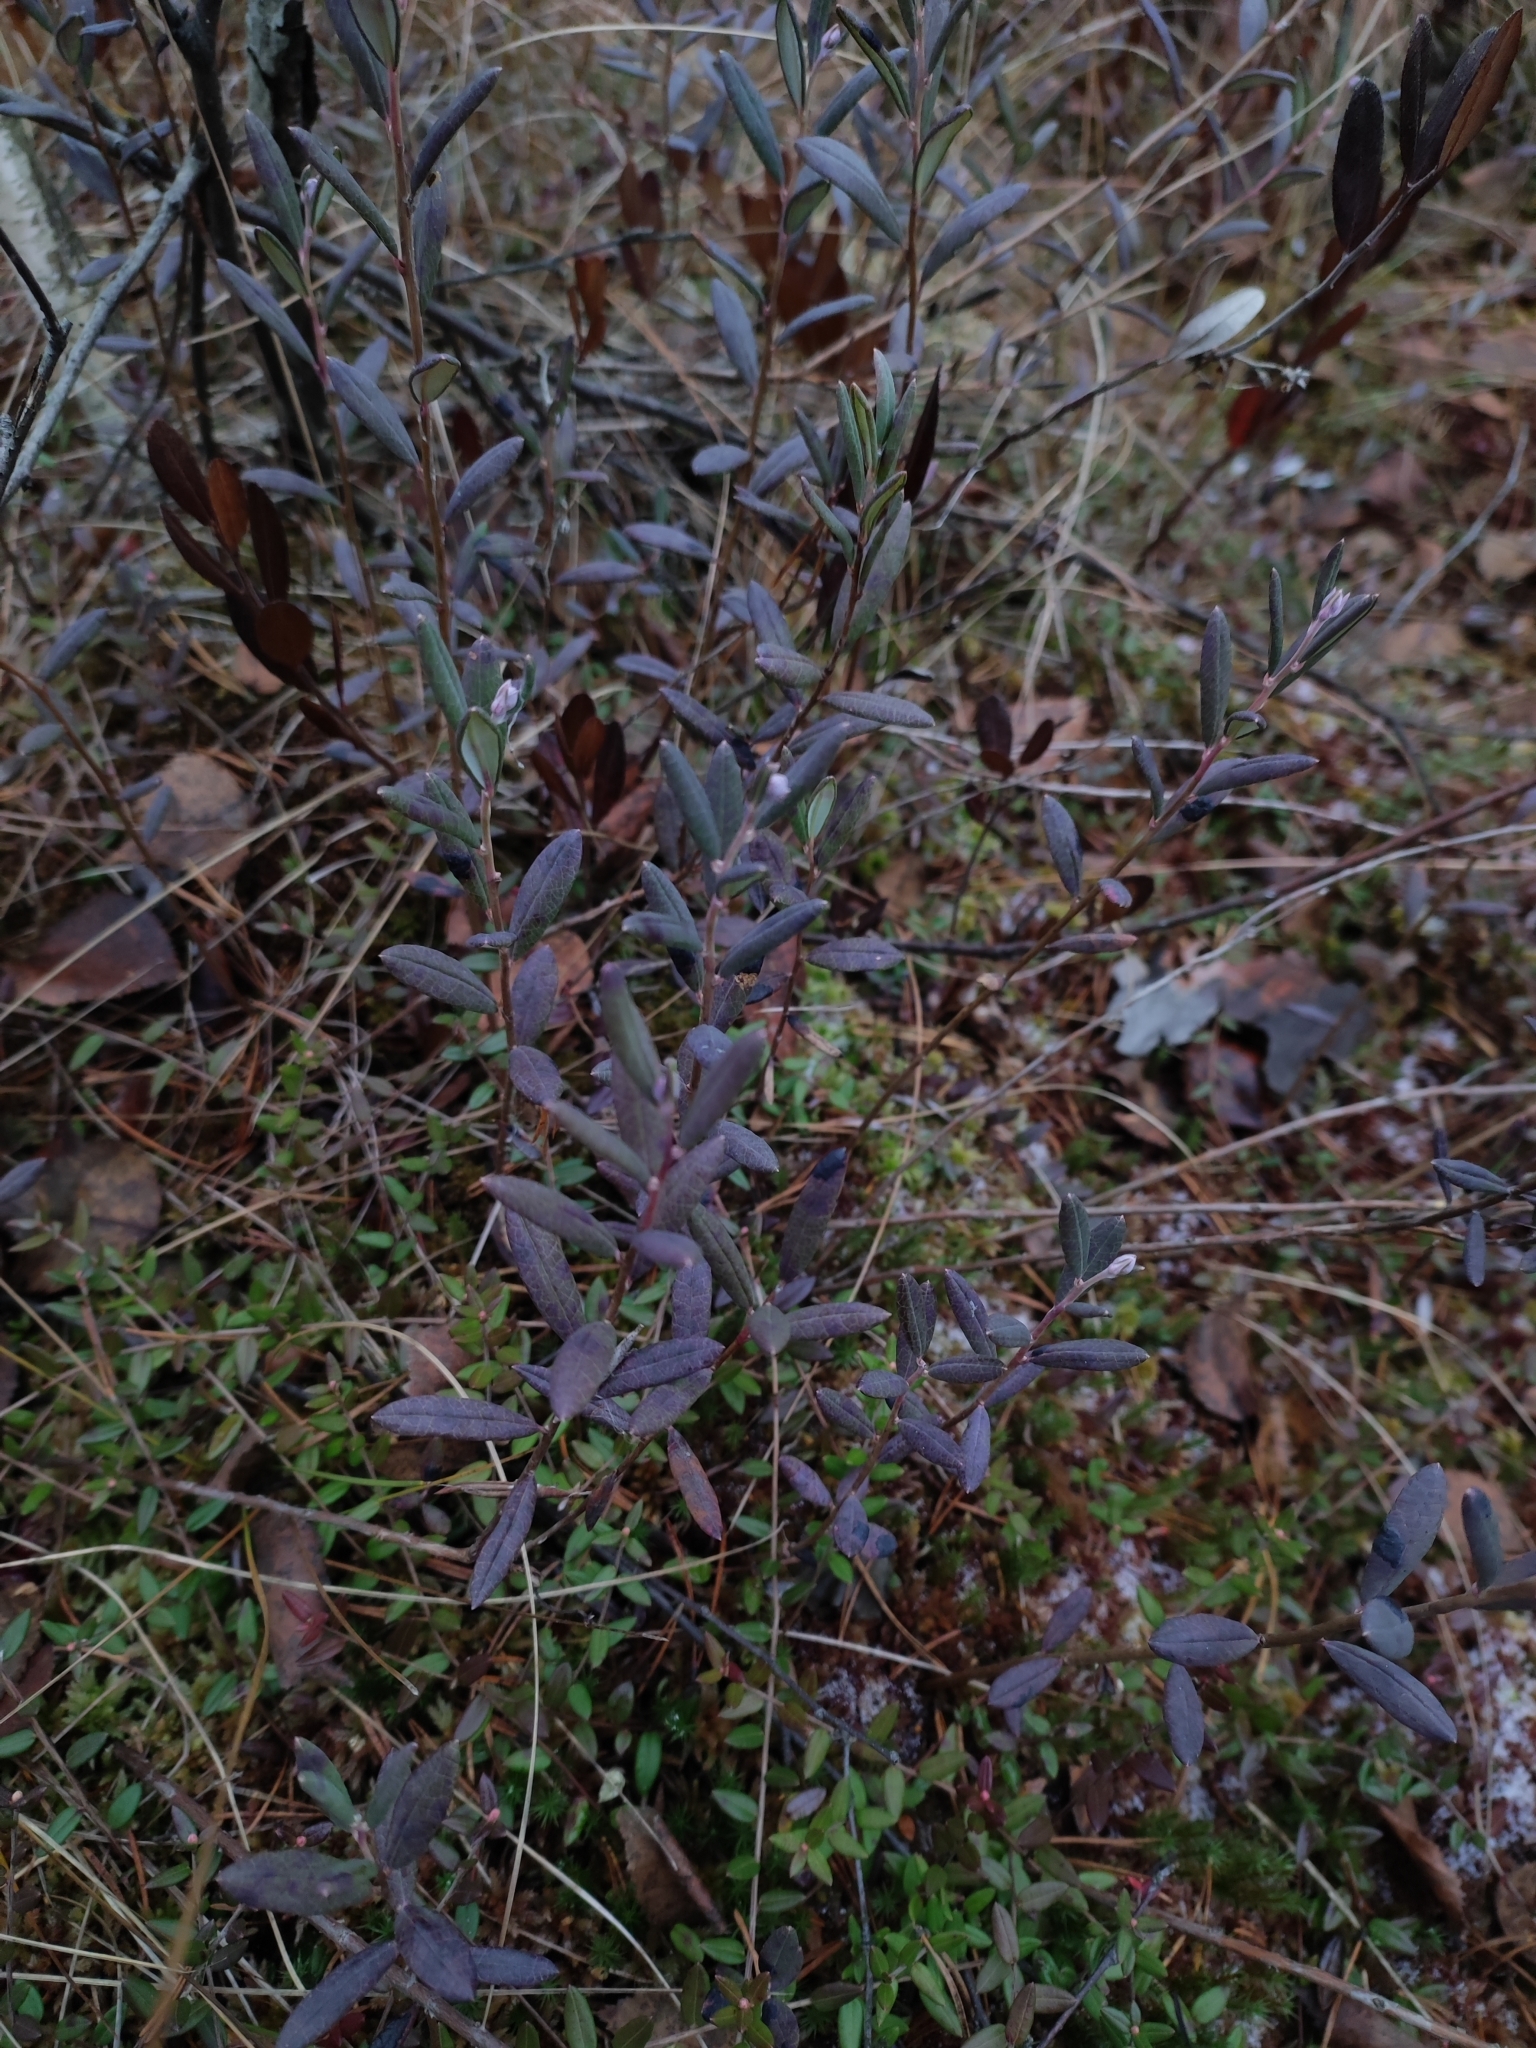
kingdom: Plantae
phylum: Tracheophyta
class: Magnoliopsida
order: Ericales
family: Ericaceae
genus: Chamaedaphne
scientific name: Chamaedaphne calyculata
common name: Leatherleaf
